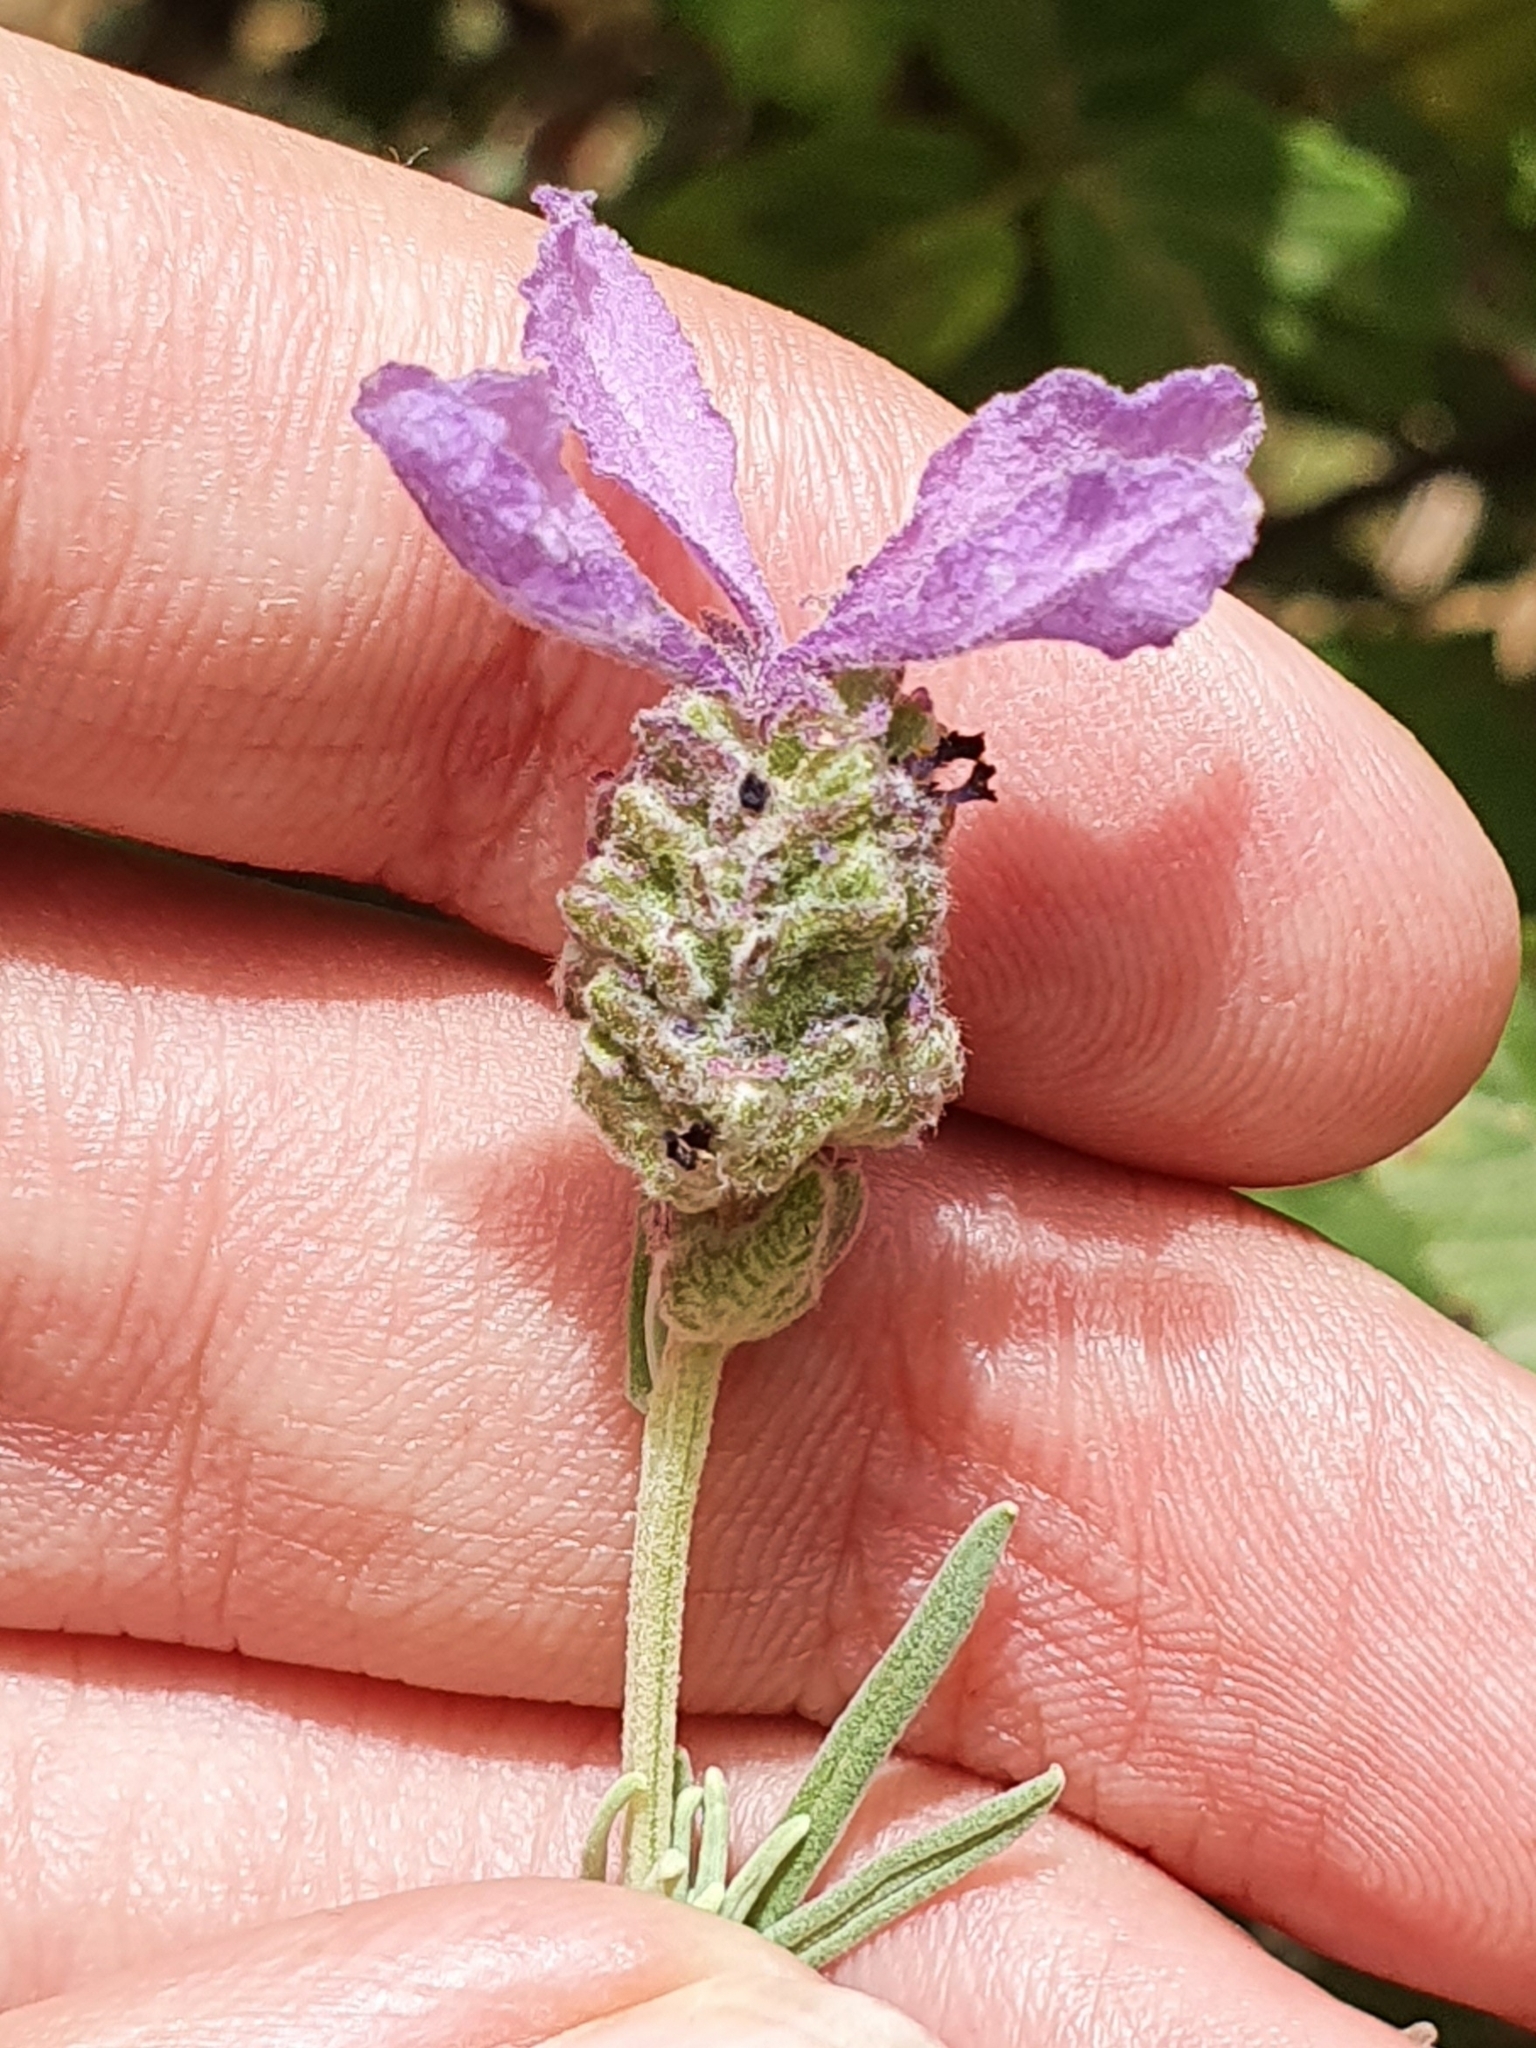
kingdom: Plantae
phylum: Tracheophyta
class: Magnoliopsida
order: Lamiales
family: Lamiaceae
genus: Lavandula
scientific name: Lavandula stoechas
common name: French lavender
